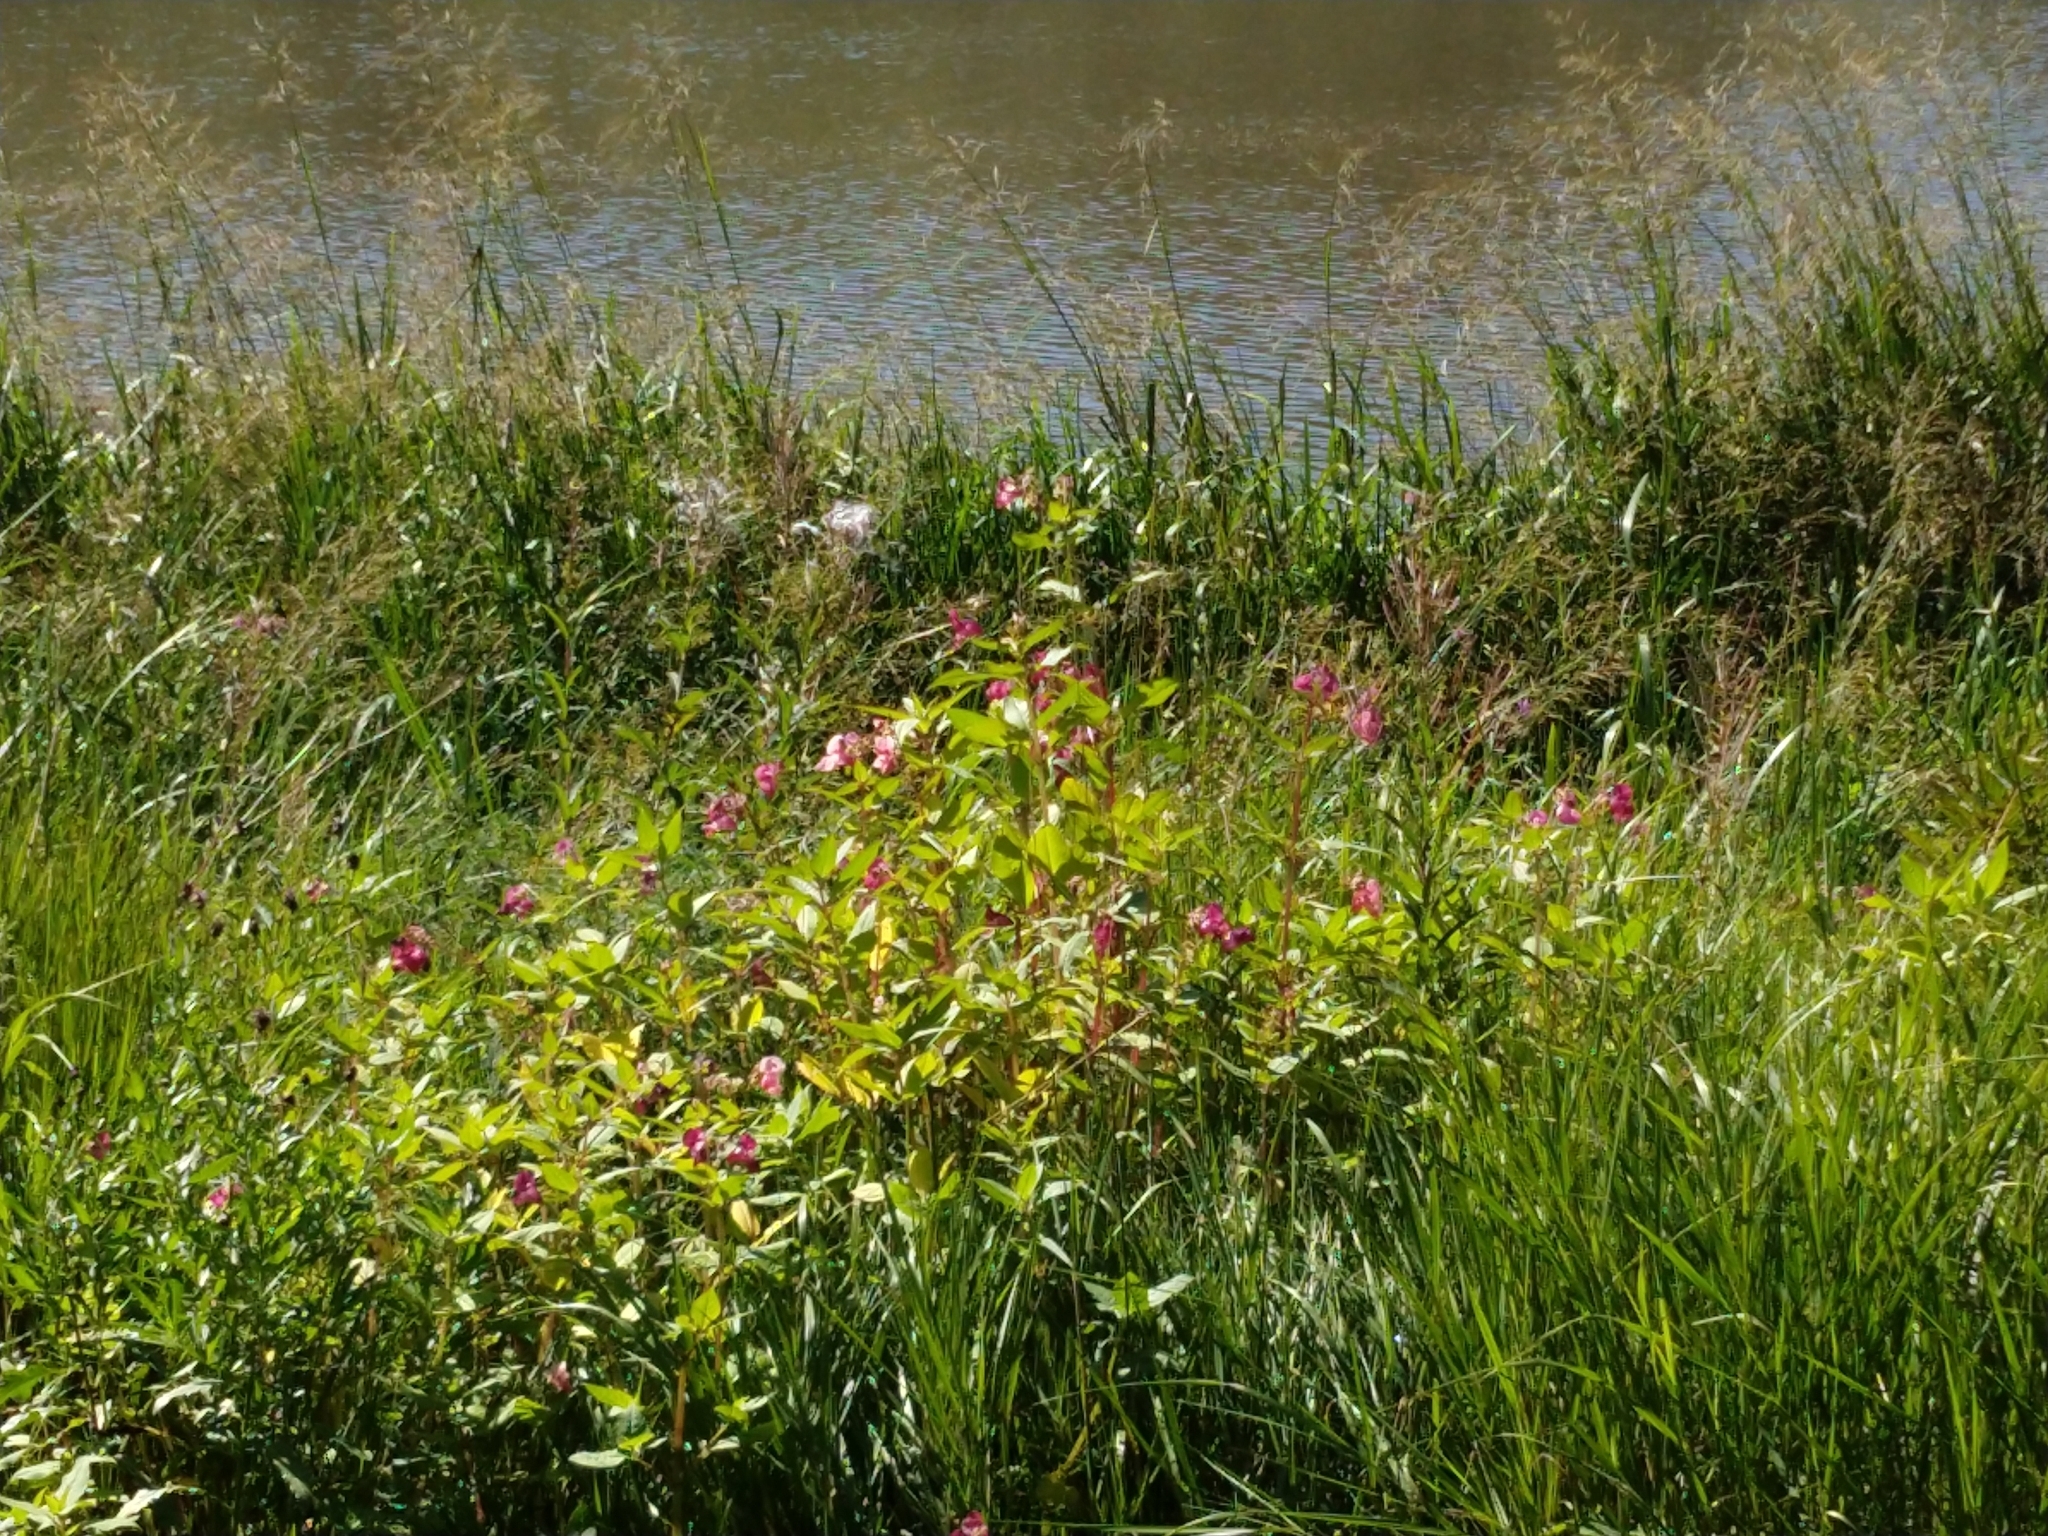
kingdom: Plantae
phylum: Tracheophyta
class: Magnoliopsida
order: Ericales
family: Balsaminaceae
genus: Impatiens
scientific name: Impatiens glandulifera
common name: Himalayan balsam
